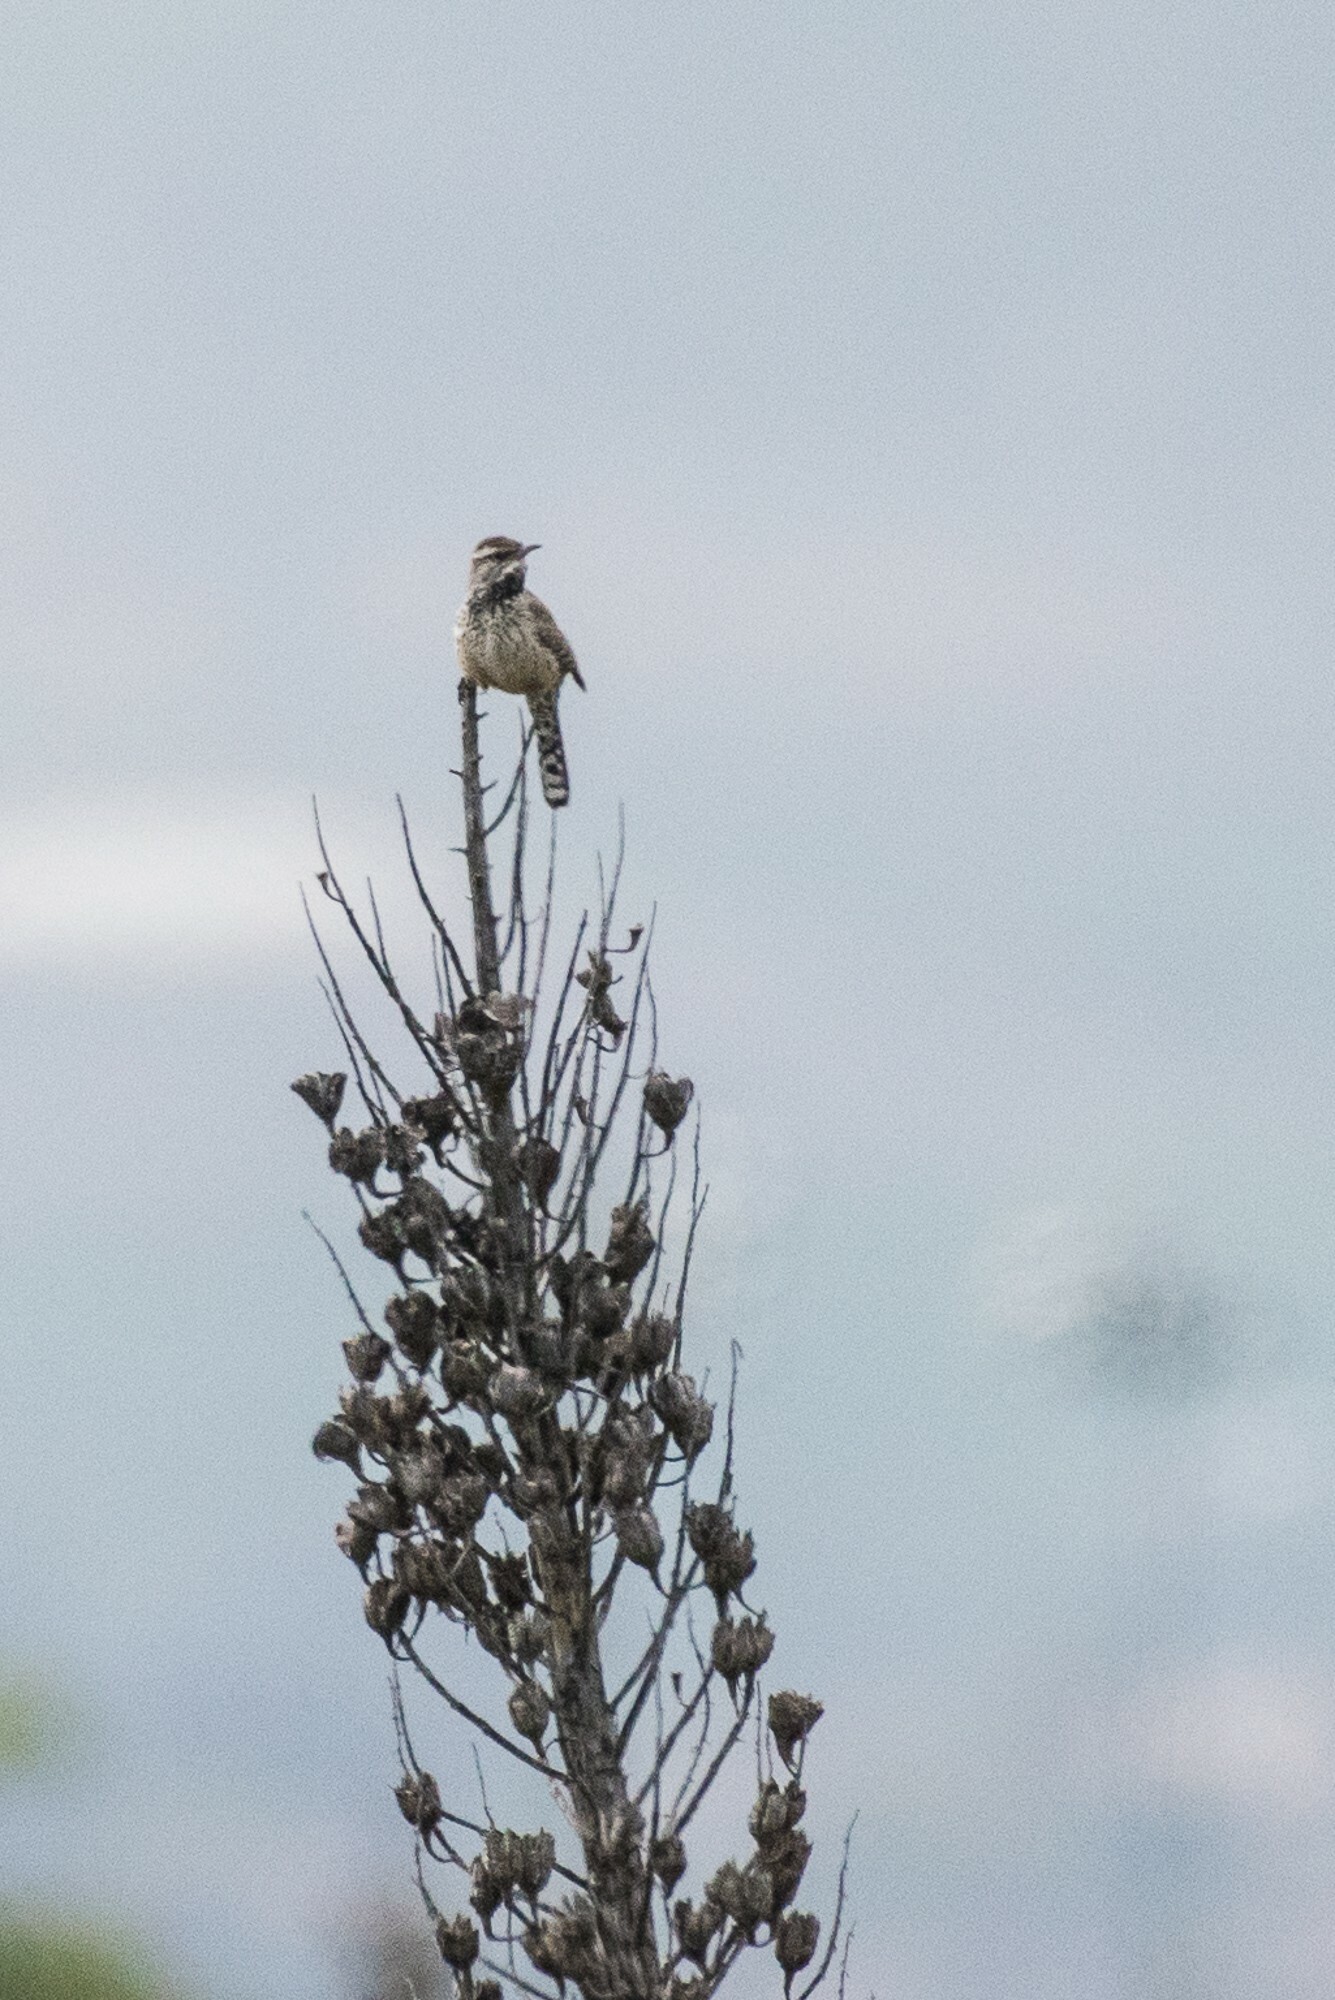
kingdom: Animalia
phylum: Chordata
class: Aves
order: Passeriformes
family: Troglodytidae
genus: Campylorhynchus
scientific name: Campylorhynchus brunneicapillus
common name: Cactus wren
